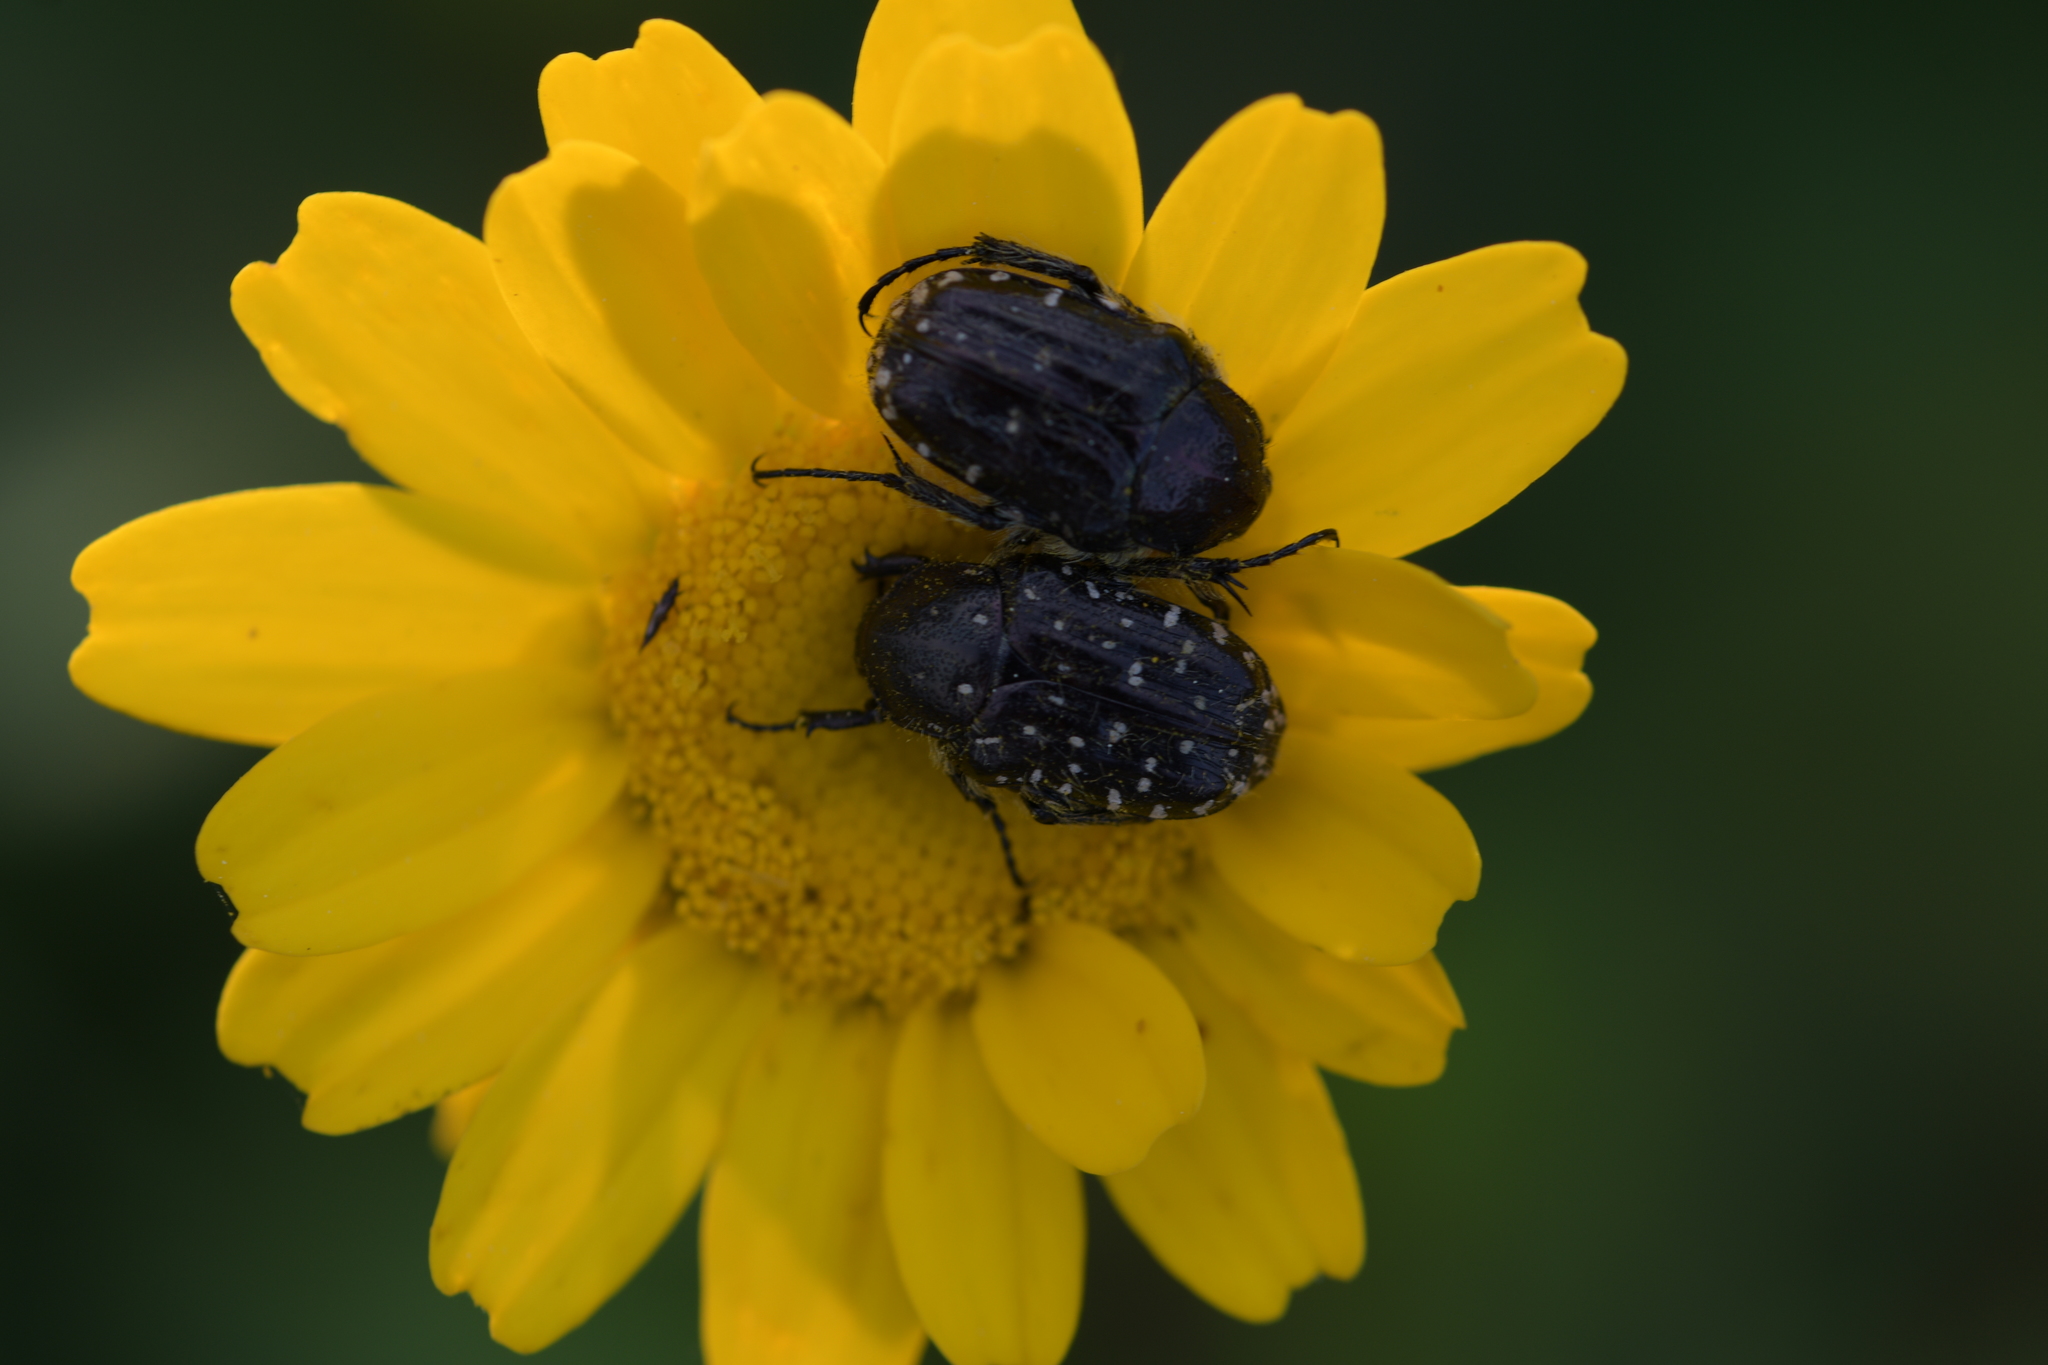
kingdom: Animalia
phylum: Arthropoda
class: Insecta
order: Coleoptera
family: Scarabaeidae
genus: Oxythyrea
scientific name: Oxythyrea funesta
